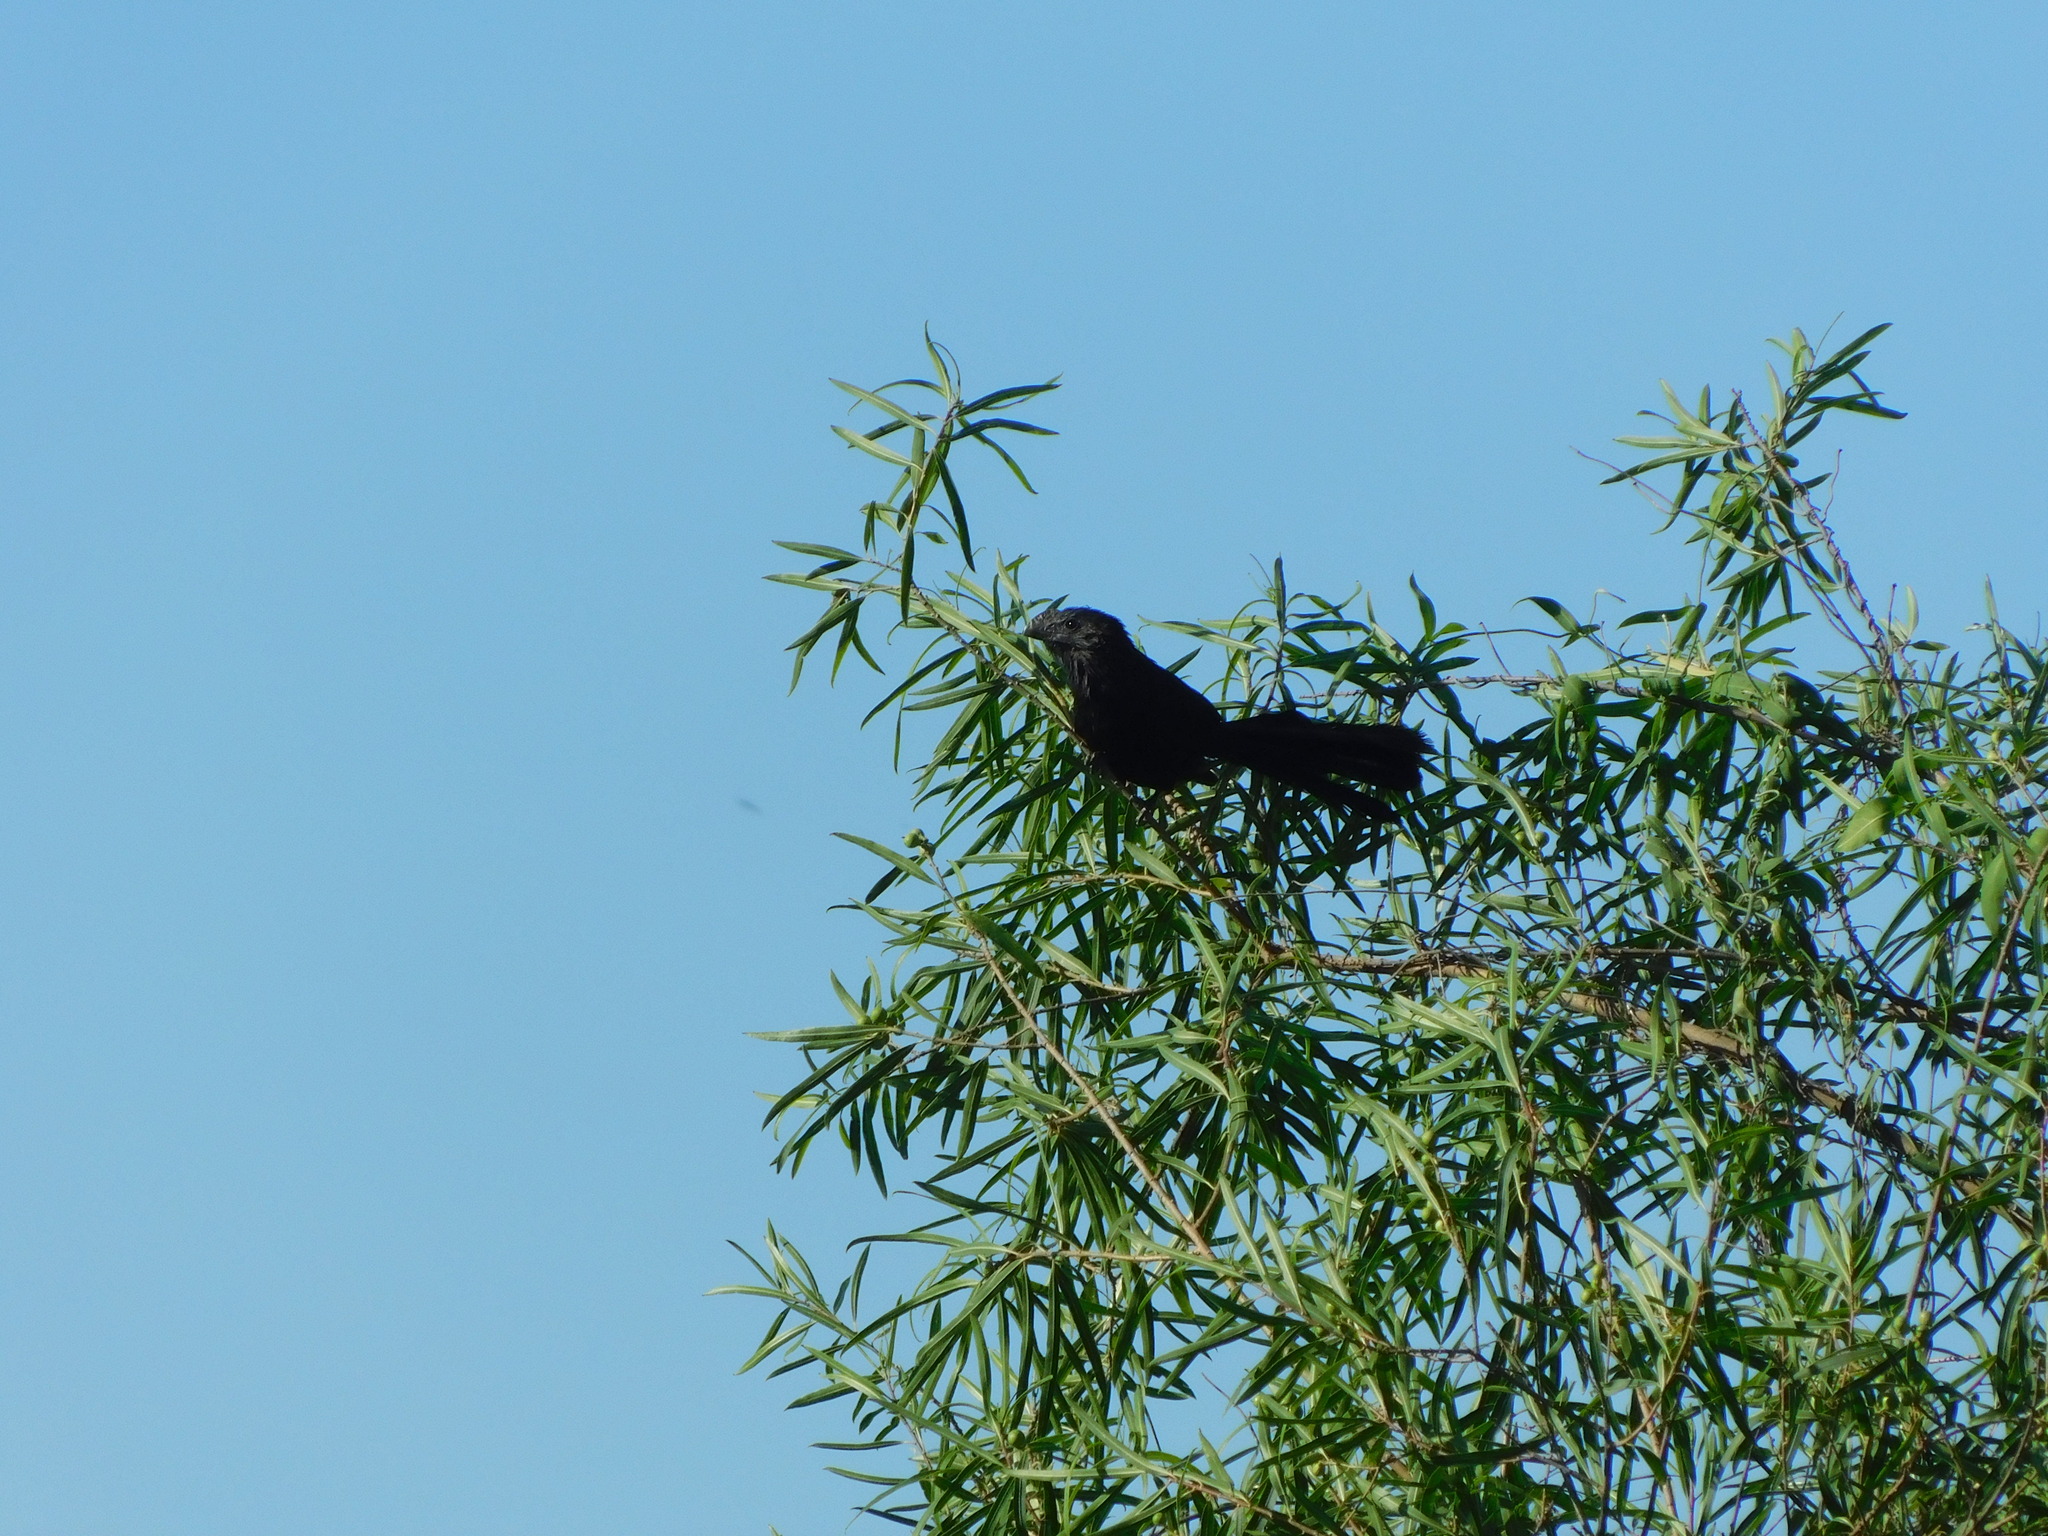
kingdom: Animalia
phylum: Chordata
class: Aves
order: Cuculiformes
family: Cuculidae
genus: Crotophaga
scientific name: Crotophaga ani
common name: Smooth-billed ani
